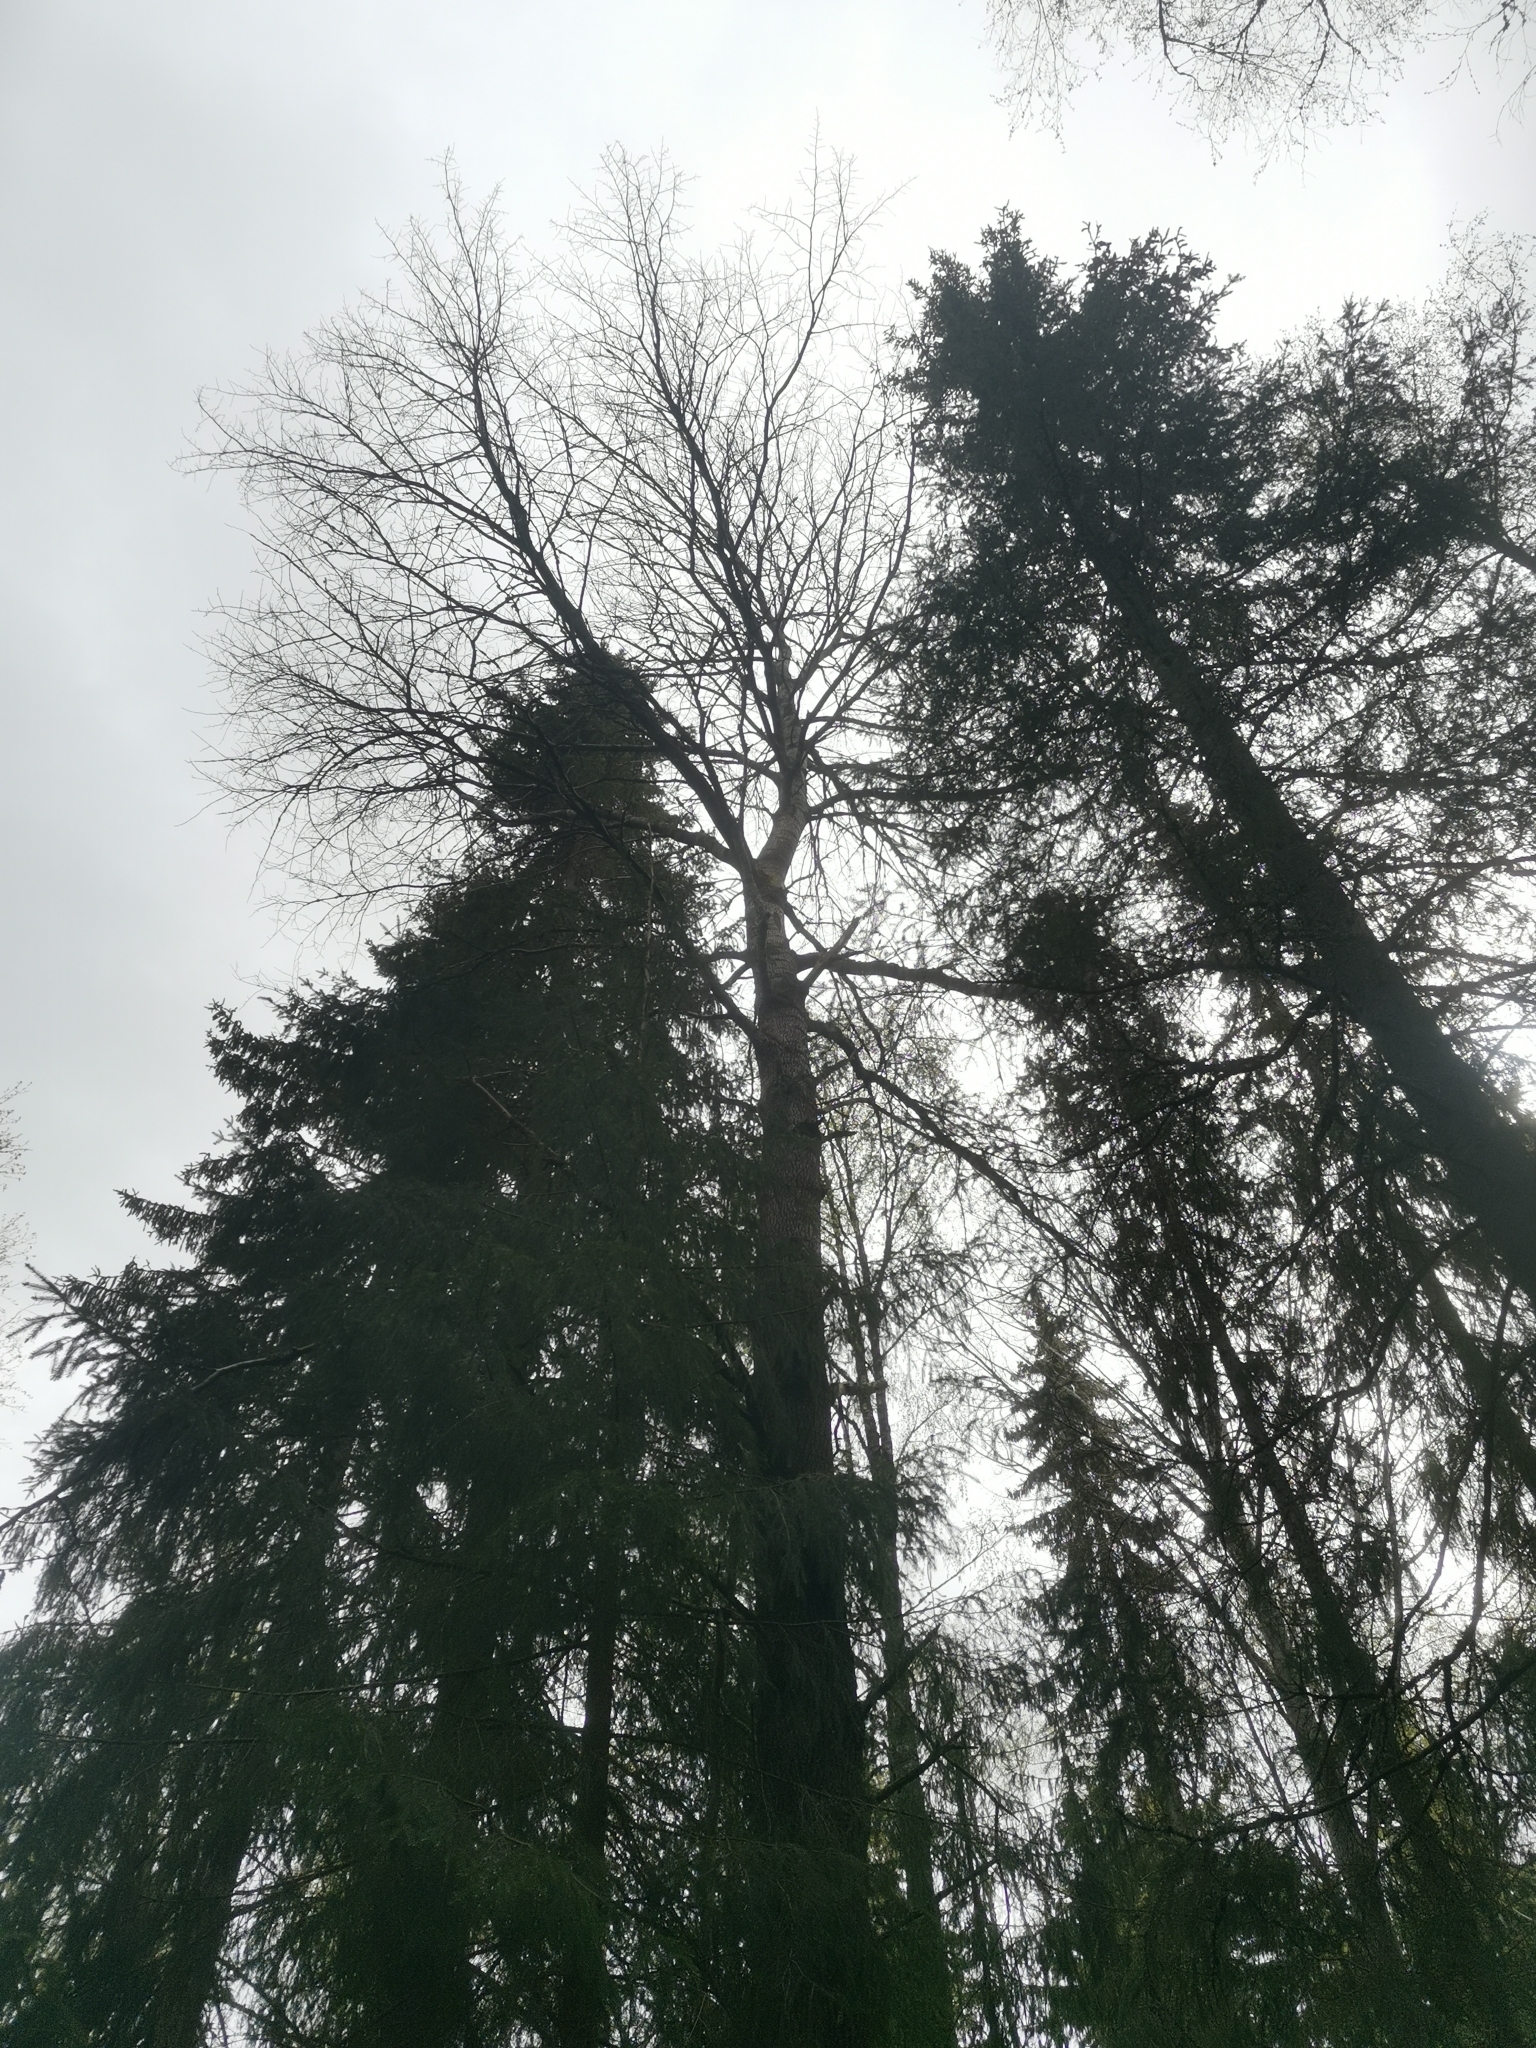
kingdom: Animalia
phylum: Chordata
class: Mammalia
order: Rodentia
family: Sciuridae
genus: Pteromys
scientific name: Pteromys volans
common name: Siberian flying squirrel
